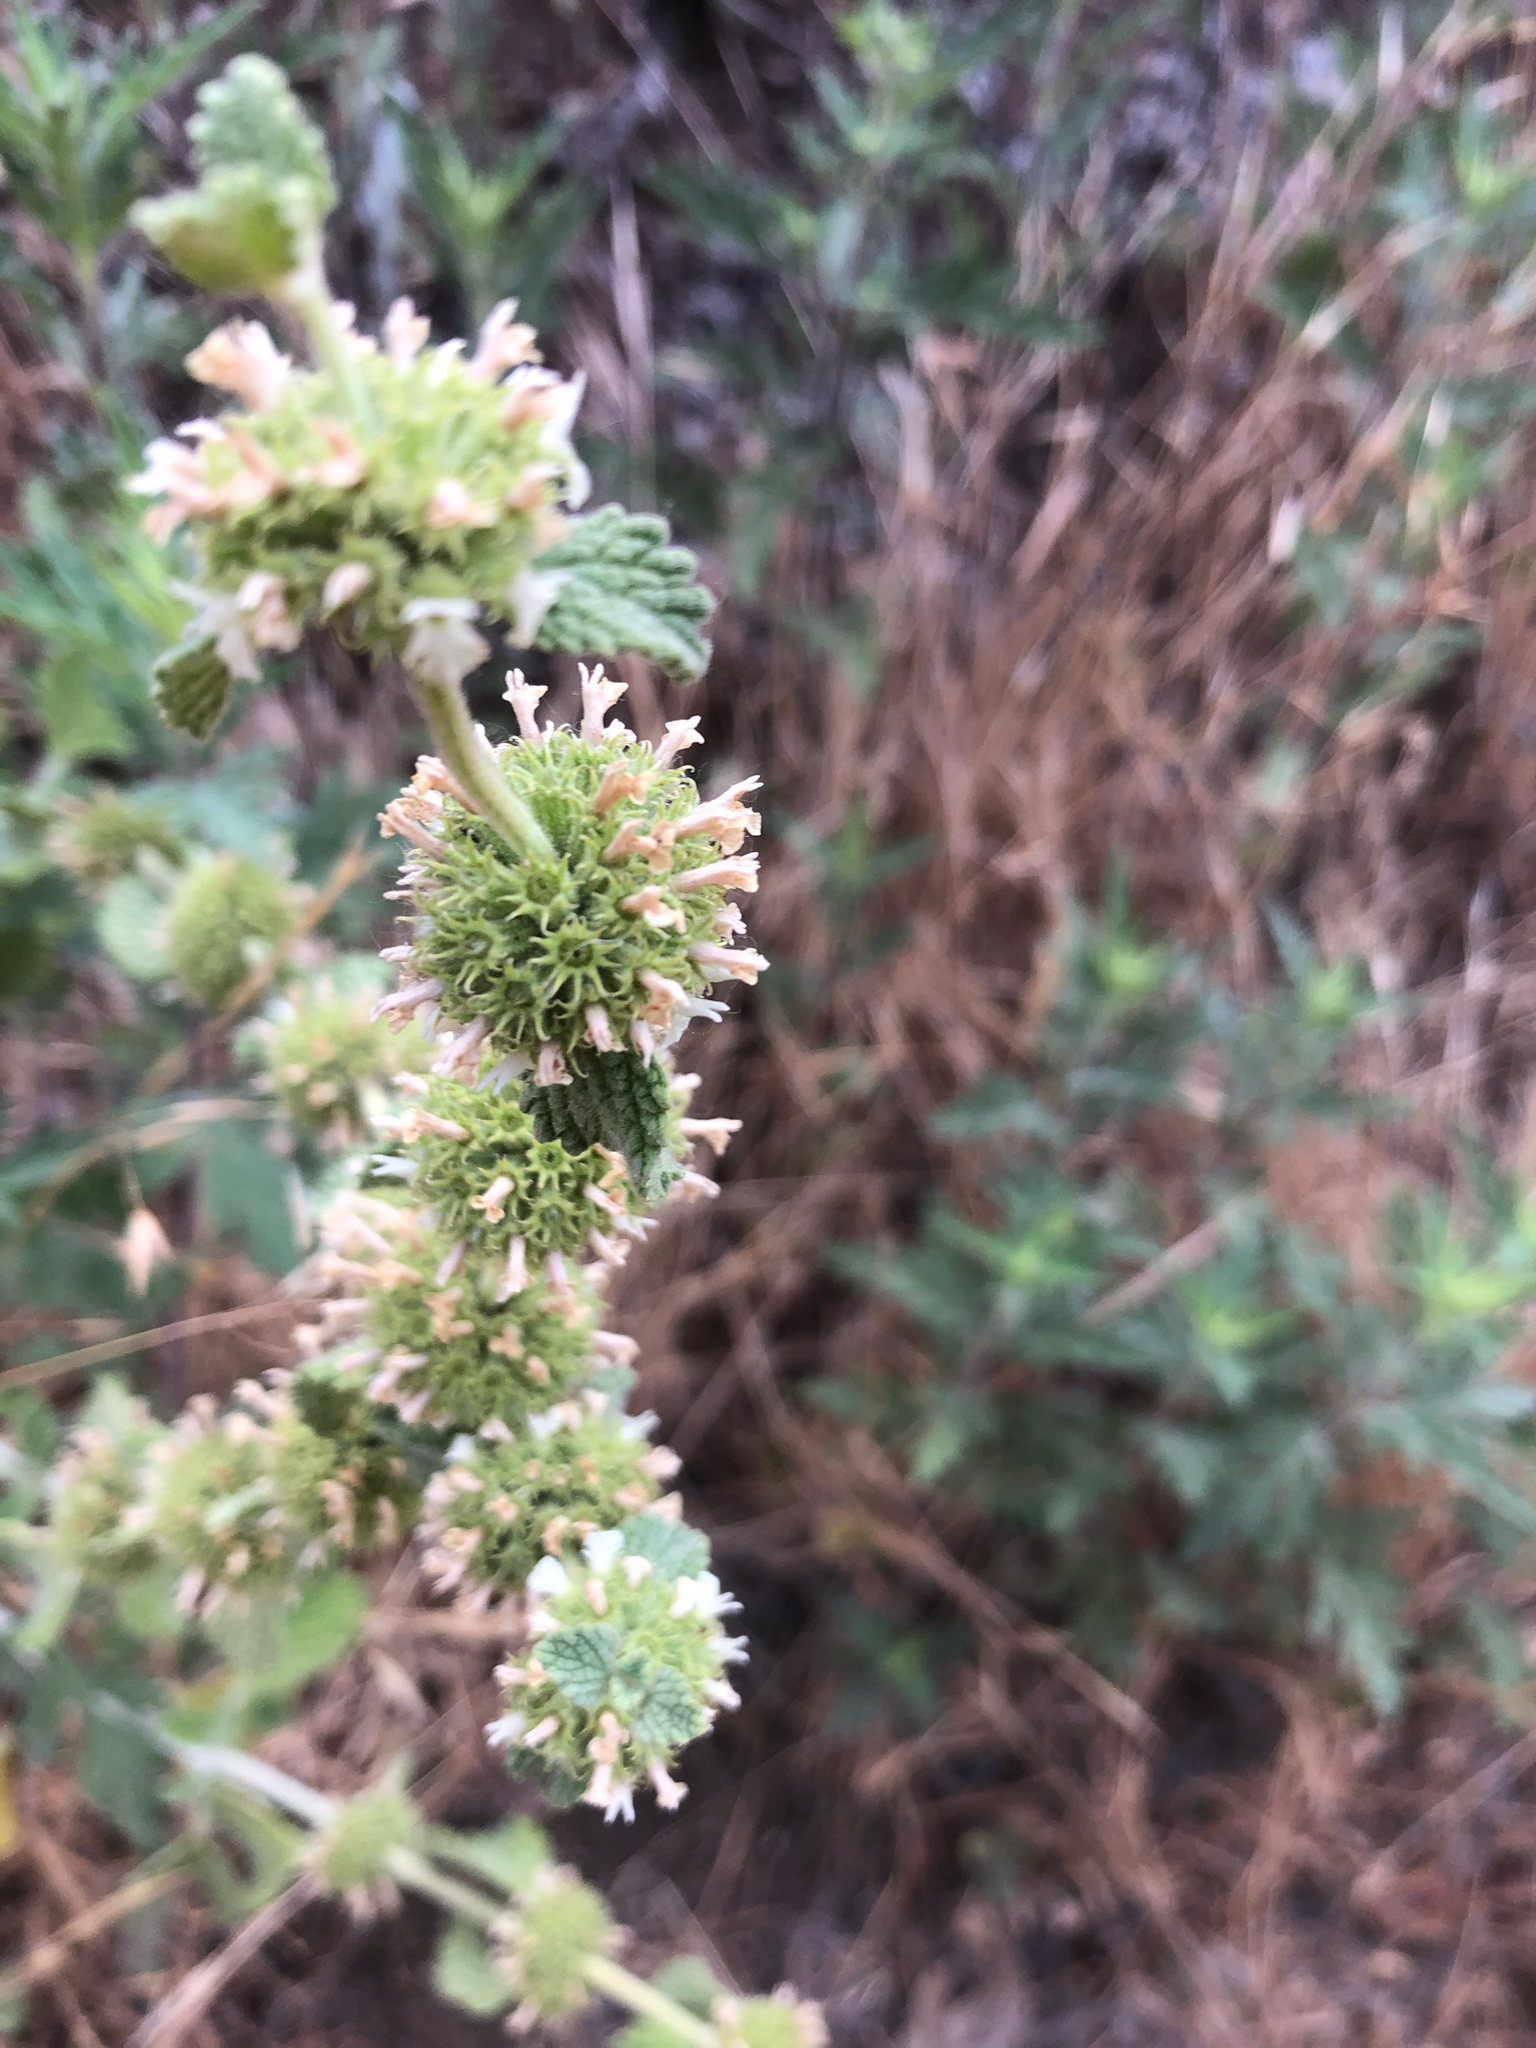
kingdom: Plantae
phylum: Tracheophyta
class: Magnoliopsida
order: Lamiales
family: Lamiaceae
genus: Marrubium
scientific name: Marrubium vulgare
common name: Horehound
